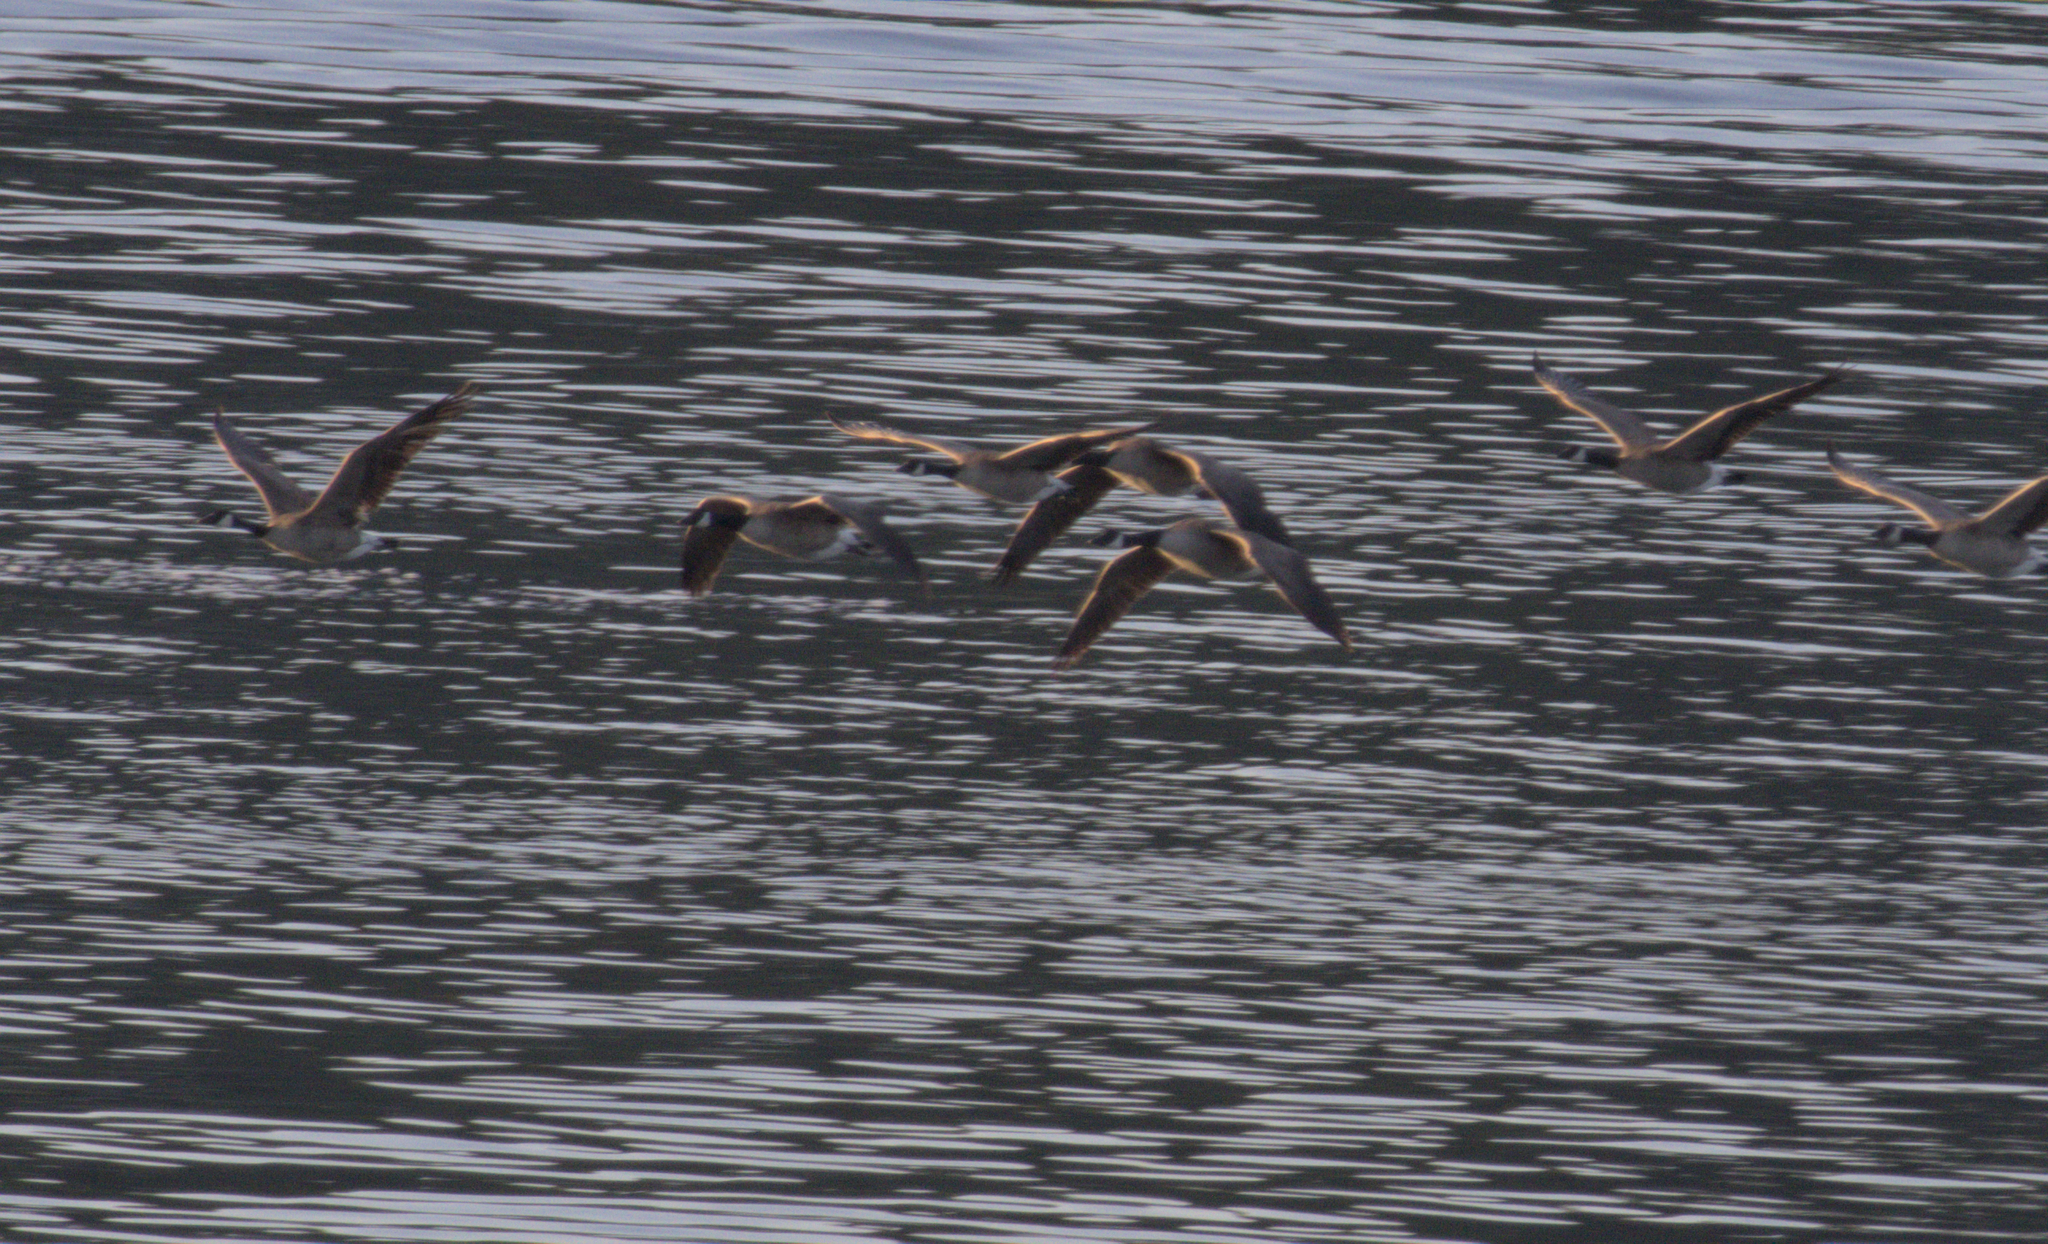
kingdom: Animalia
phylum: Chordata
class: Aves
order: Anseriformes
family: Anatidae
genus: Branta
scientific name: Branta canadensis
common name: Canada goose
